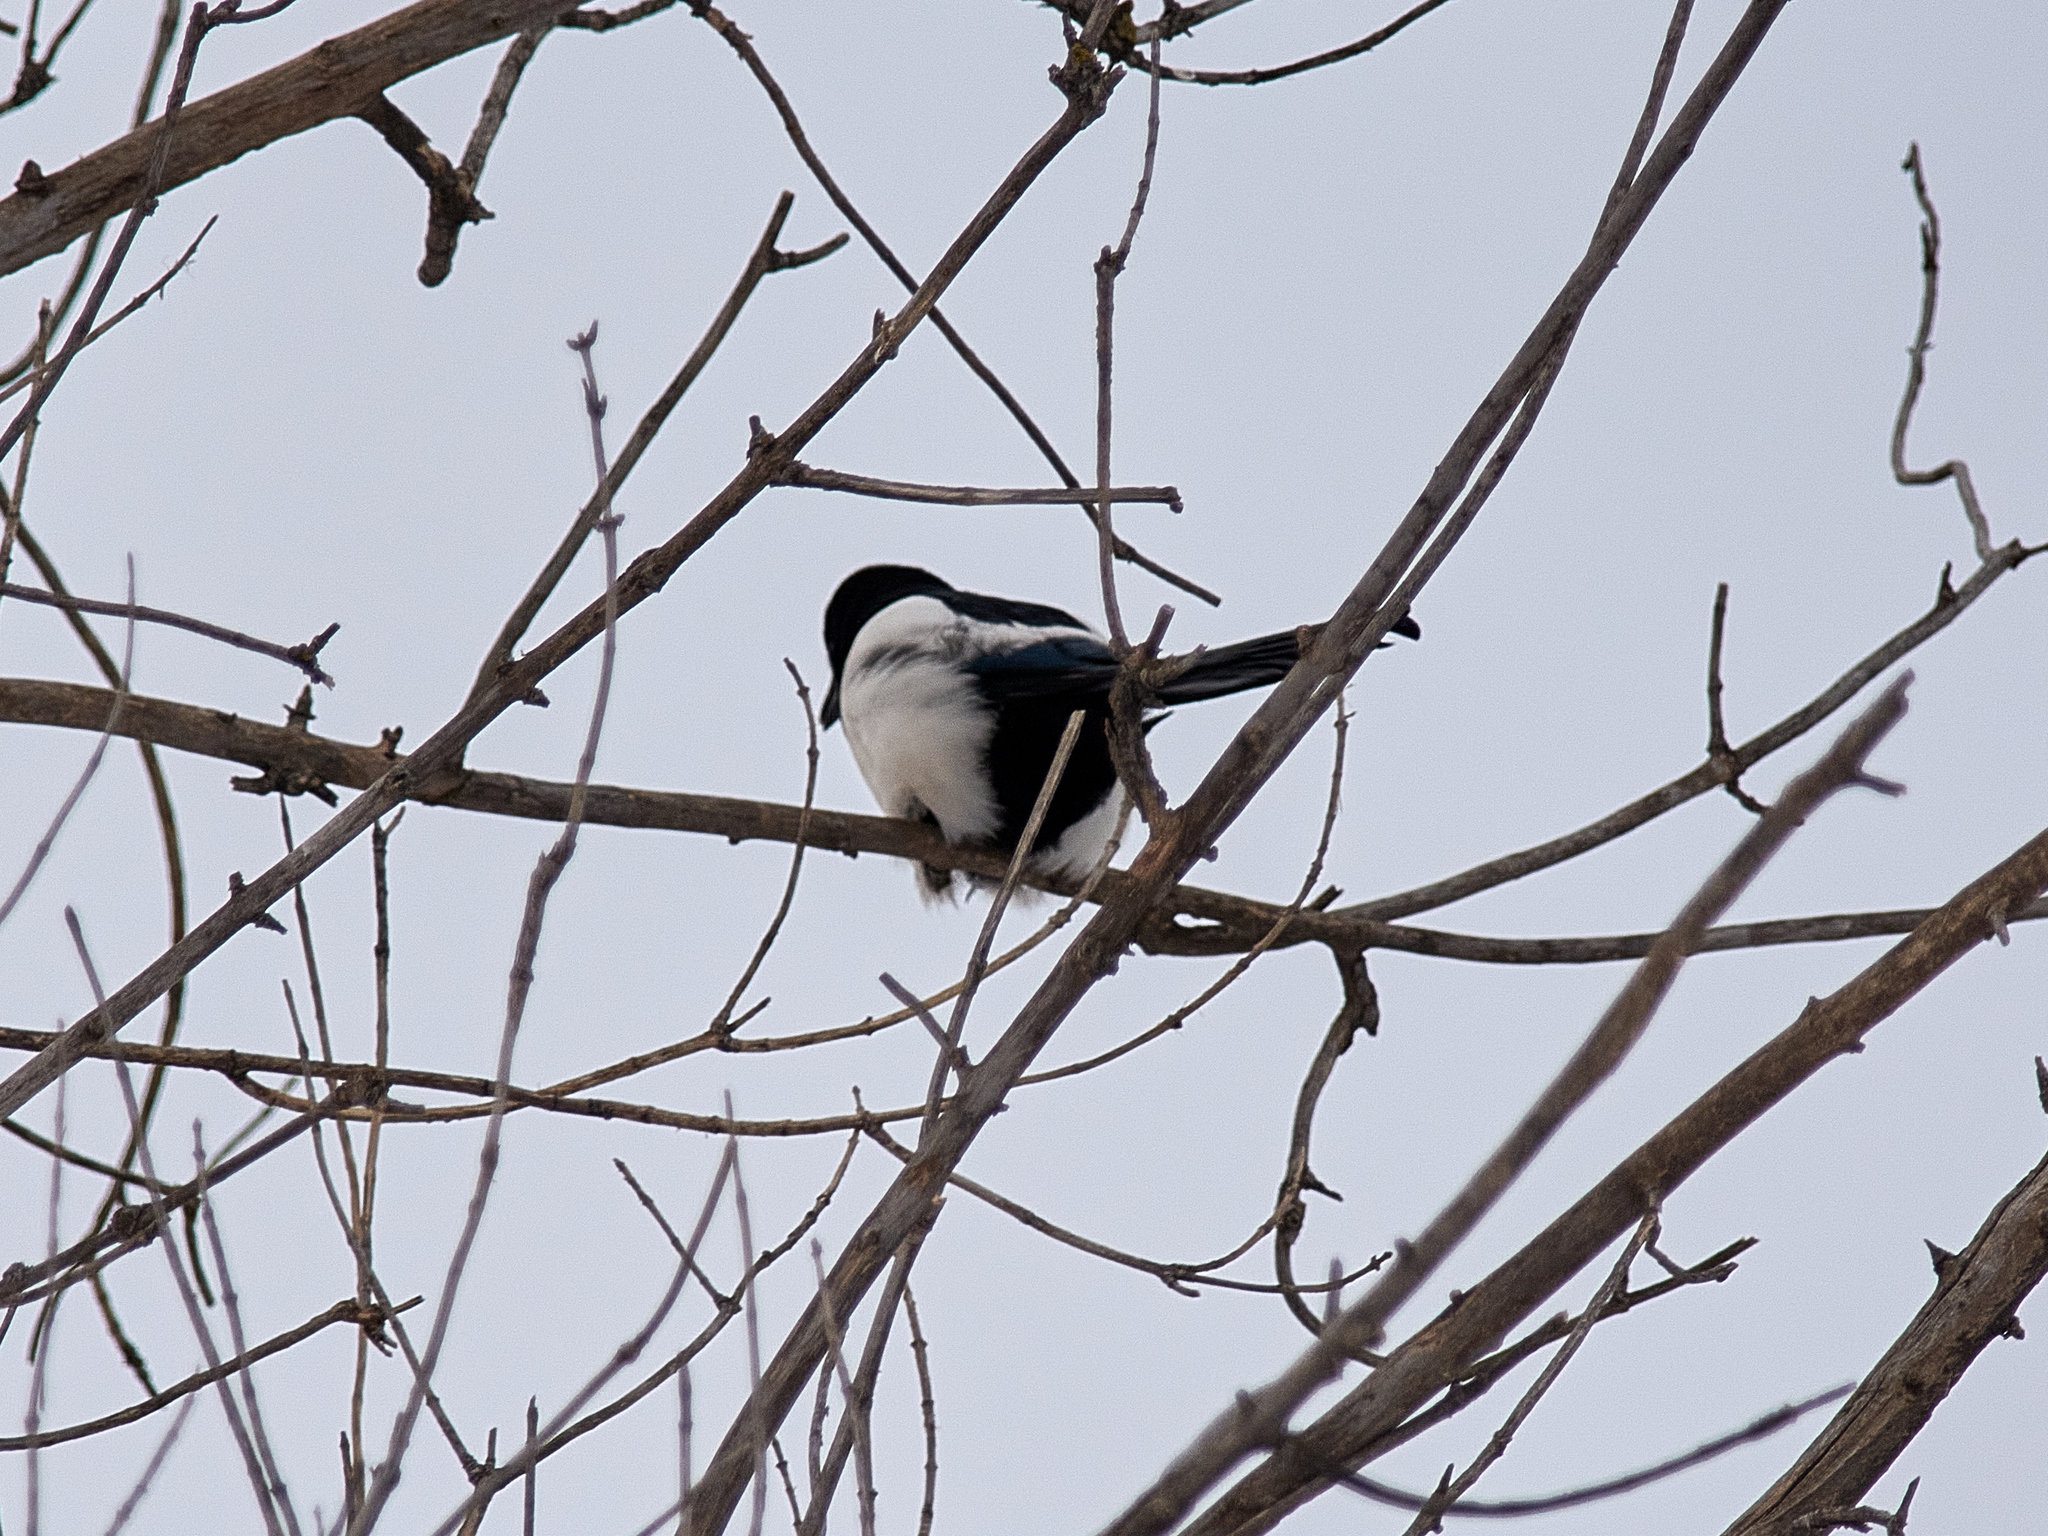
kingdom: Animalia
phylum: Chordata
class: Aves
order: Passeriformes
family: Corvidae
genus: Pica
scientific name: Pica pica
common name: Eurasian magpie
